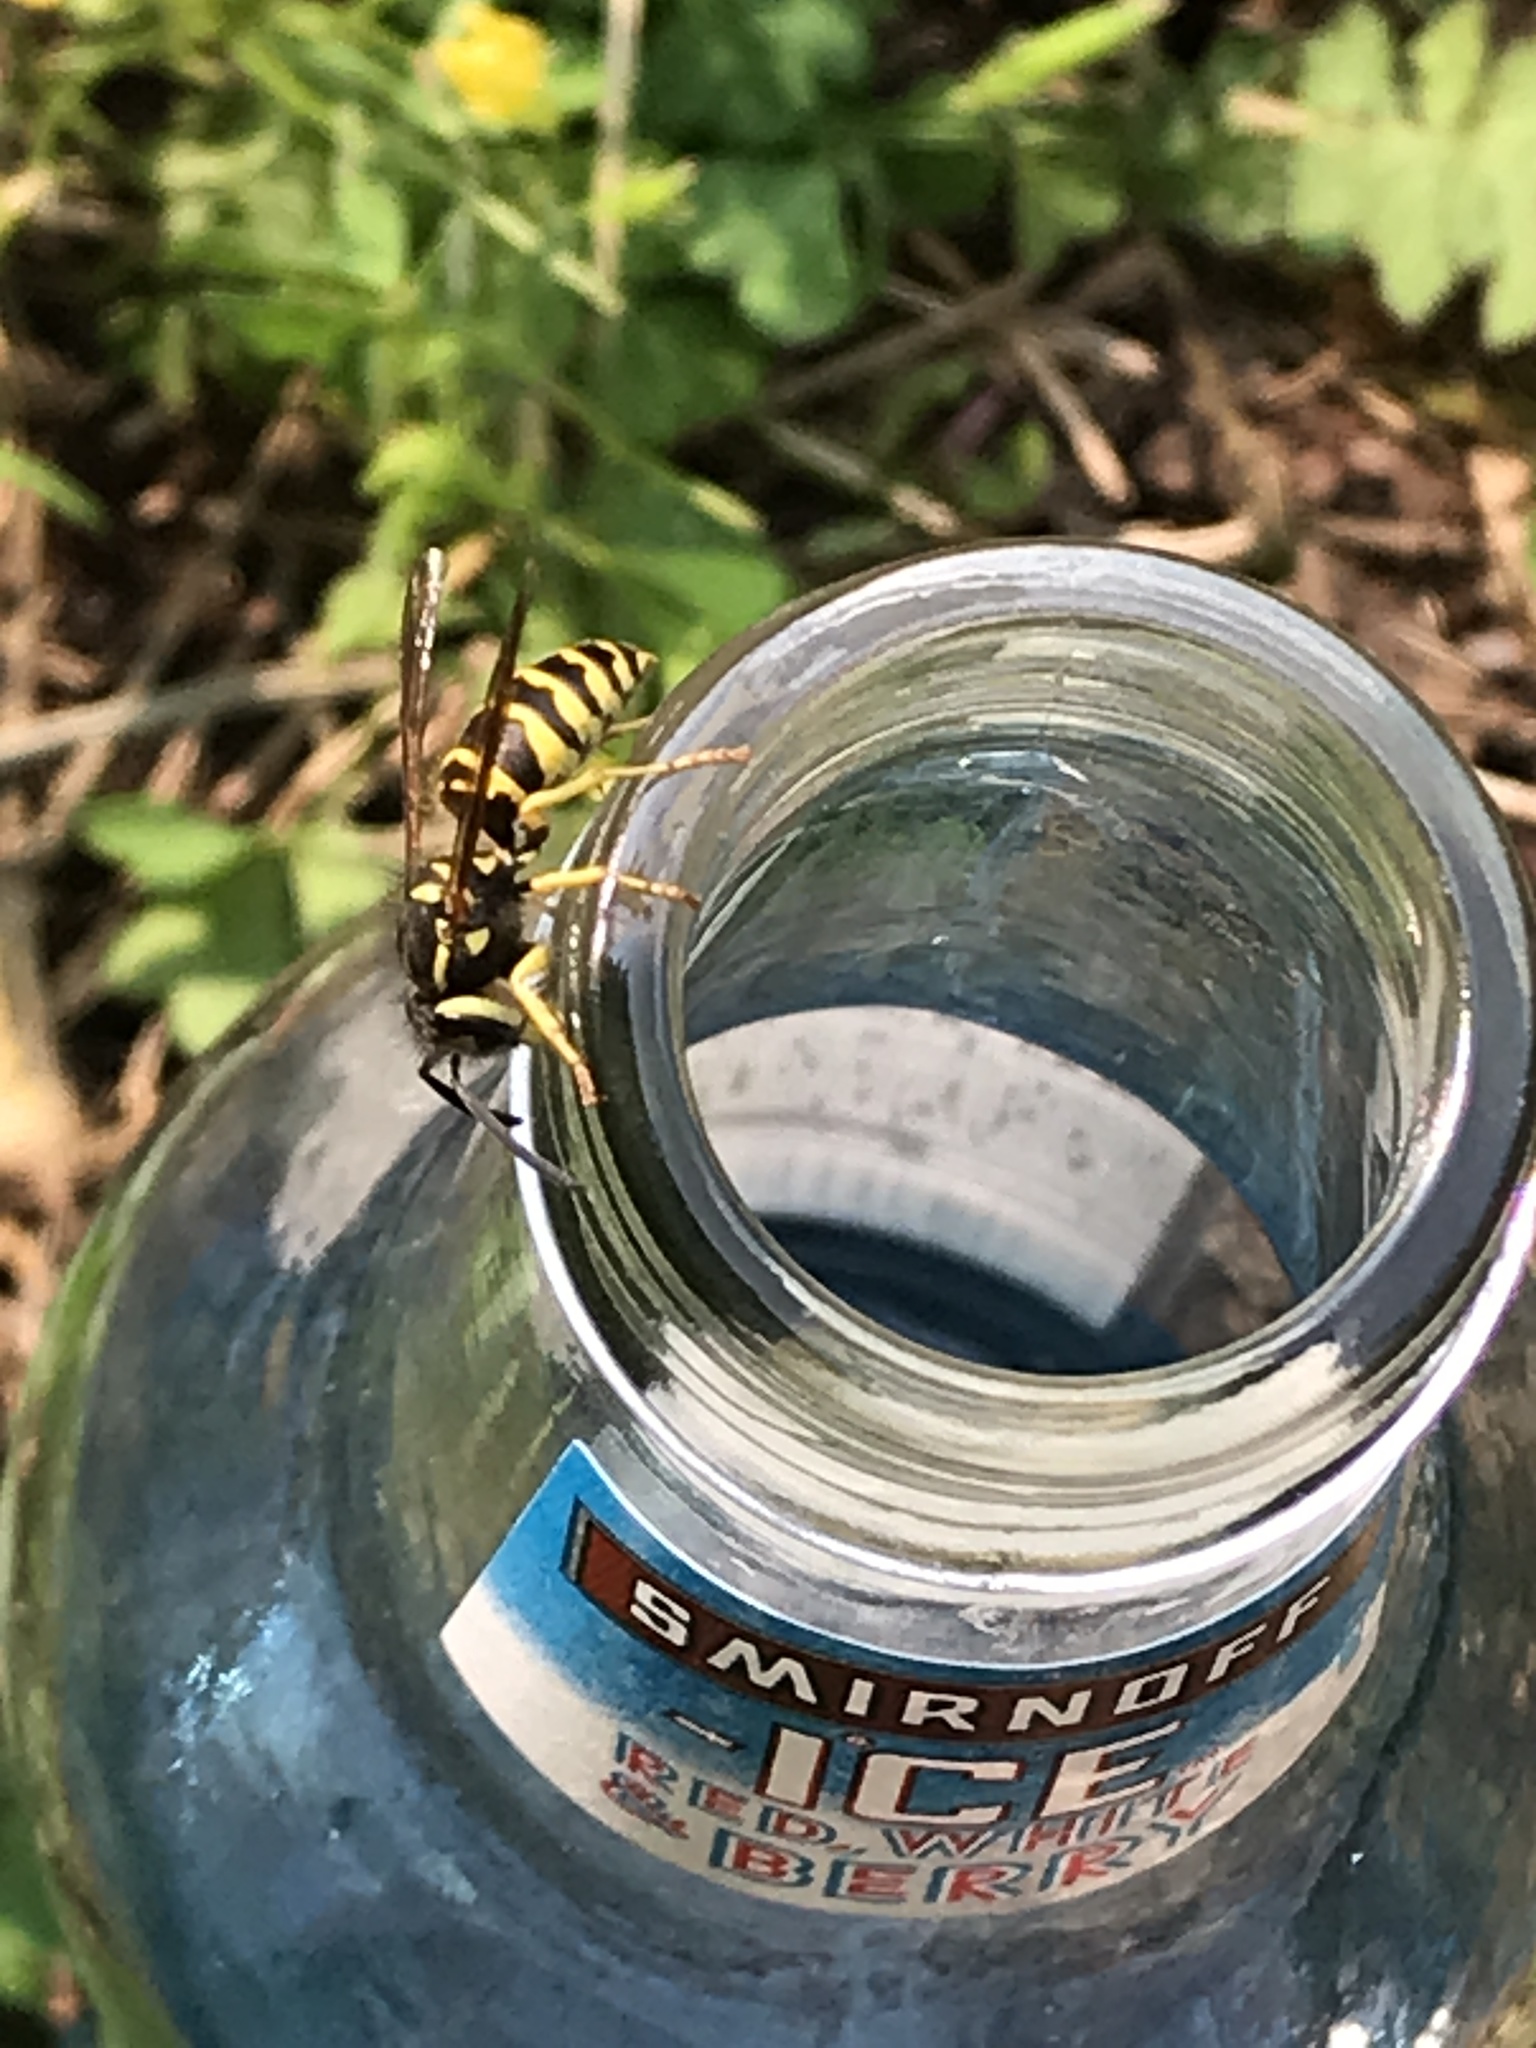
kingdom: Animalia
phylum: Arthropoda
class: Insecta
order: Hymenoptera
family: Vespidae
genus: Vespula
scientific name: Vespula maculifrons
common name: Eastern yellowjacket
